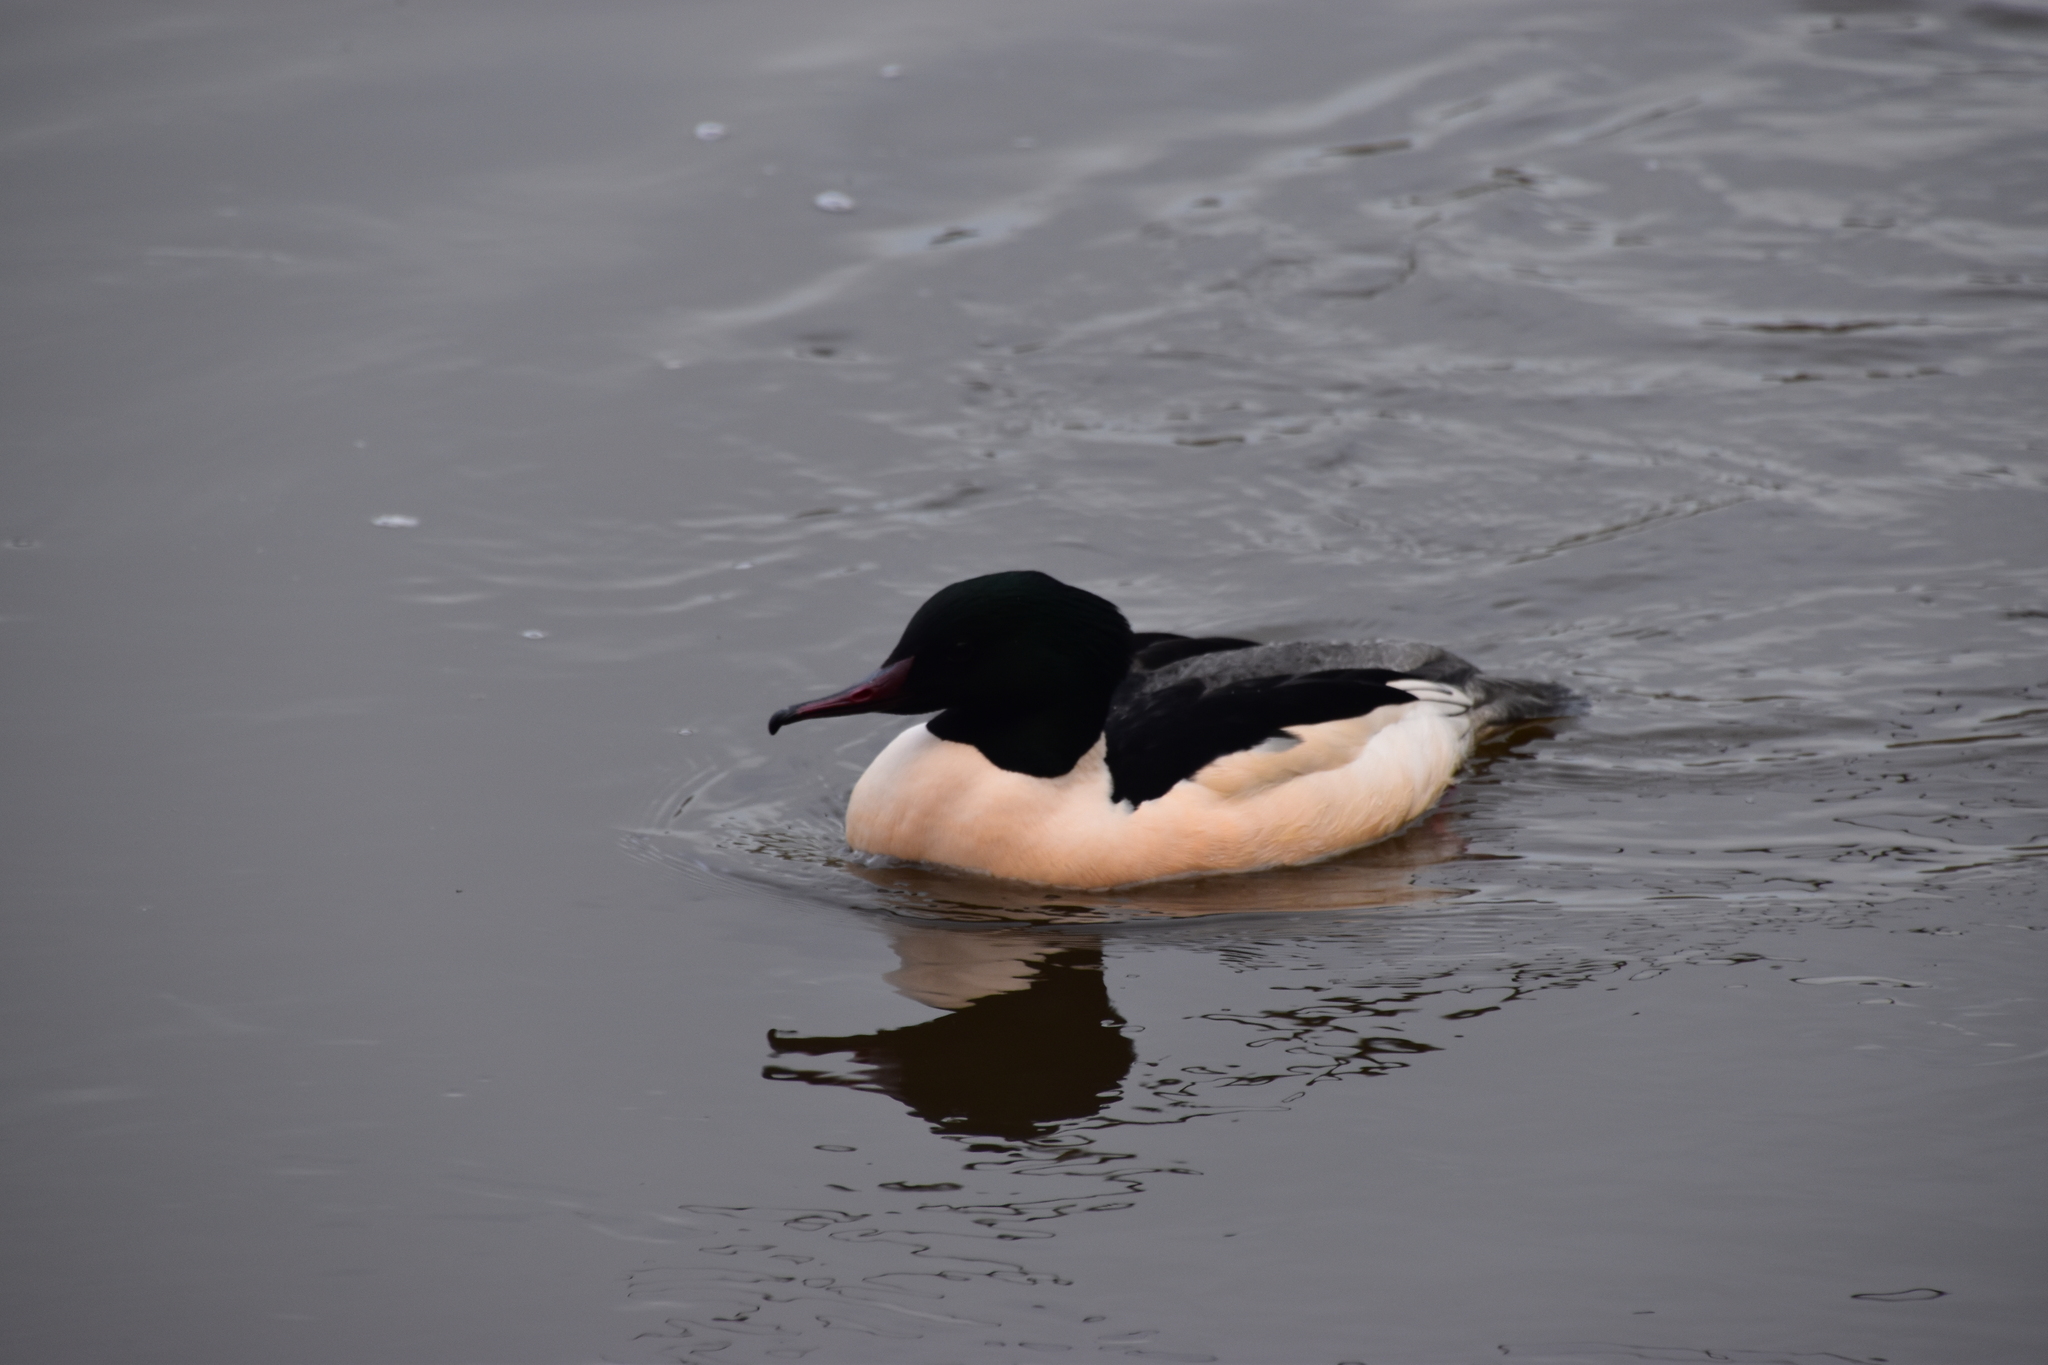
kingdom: Animalia
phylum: Chordata
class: Aves
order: Anseriformes
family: Anatidae
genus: Mergus
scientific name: Mergus merganser
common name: Common merganser
